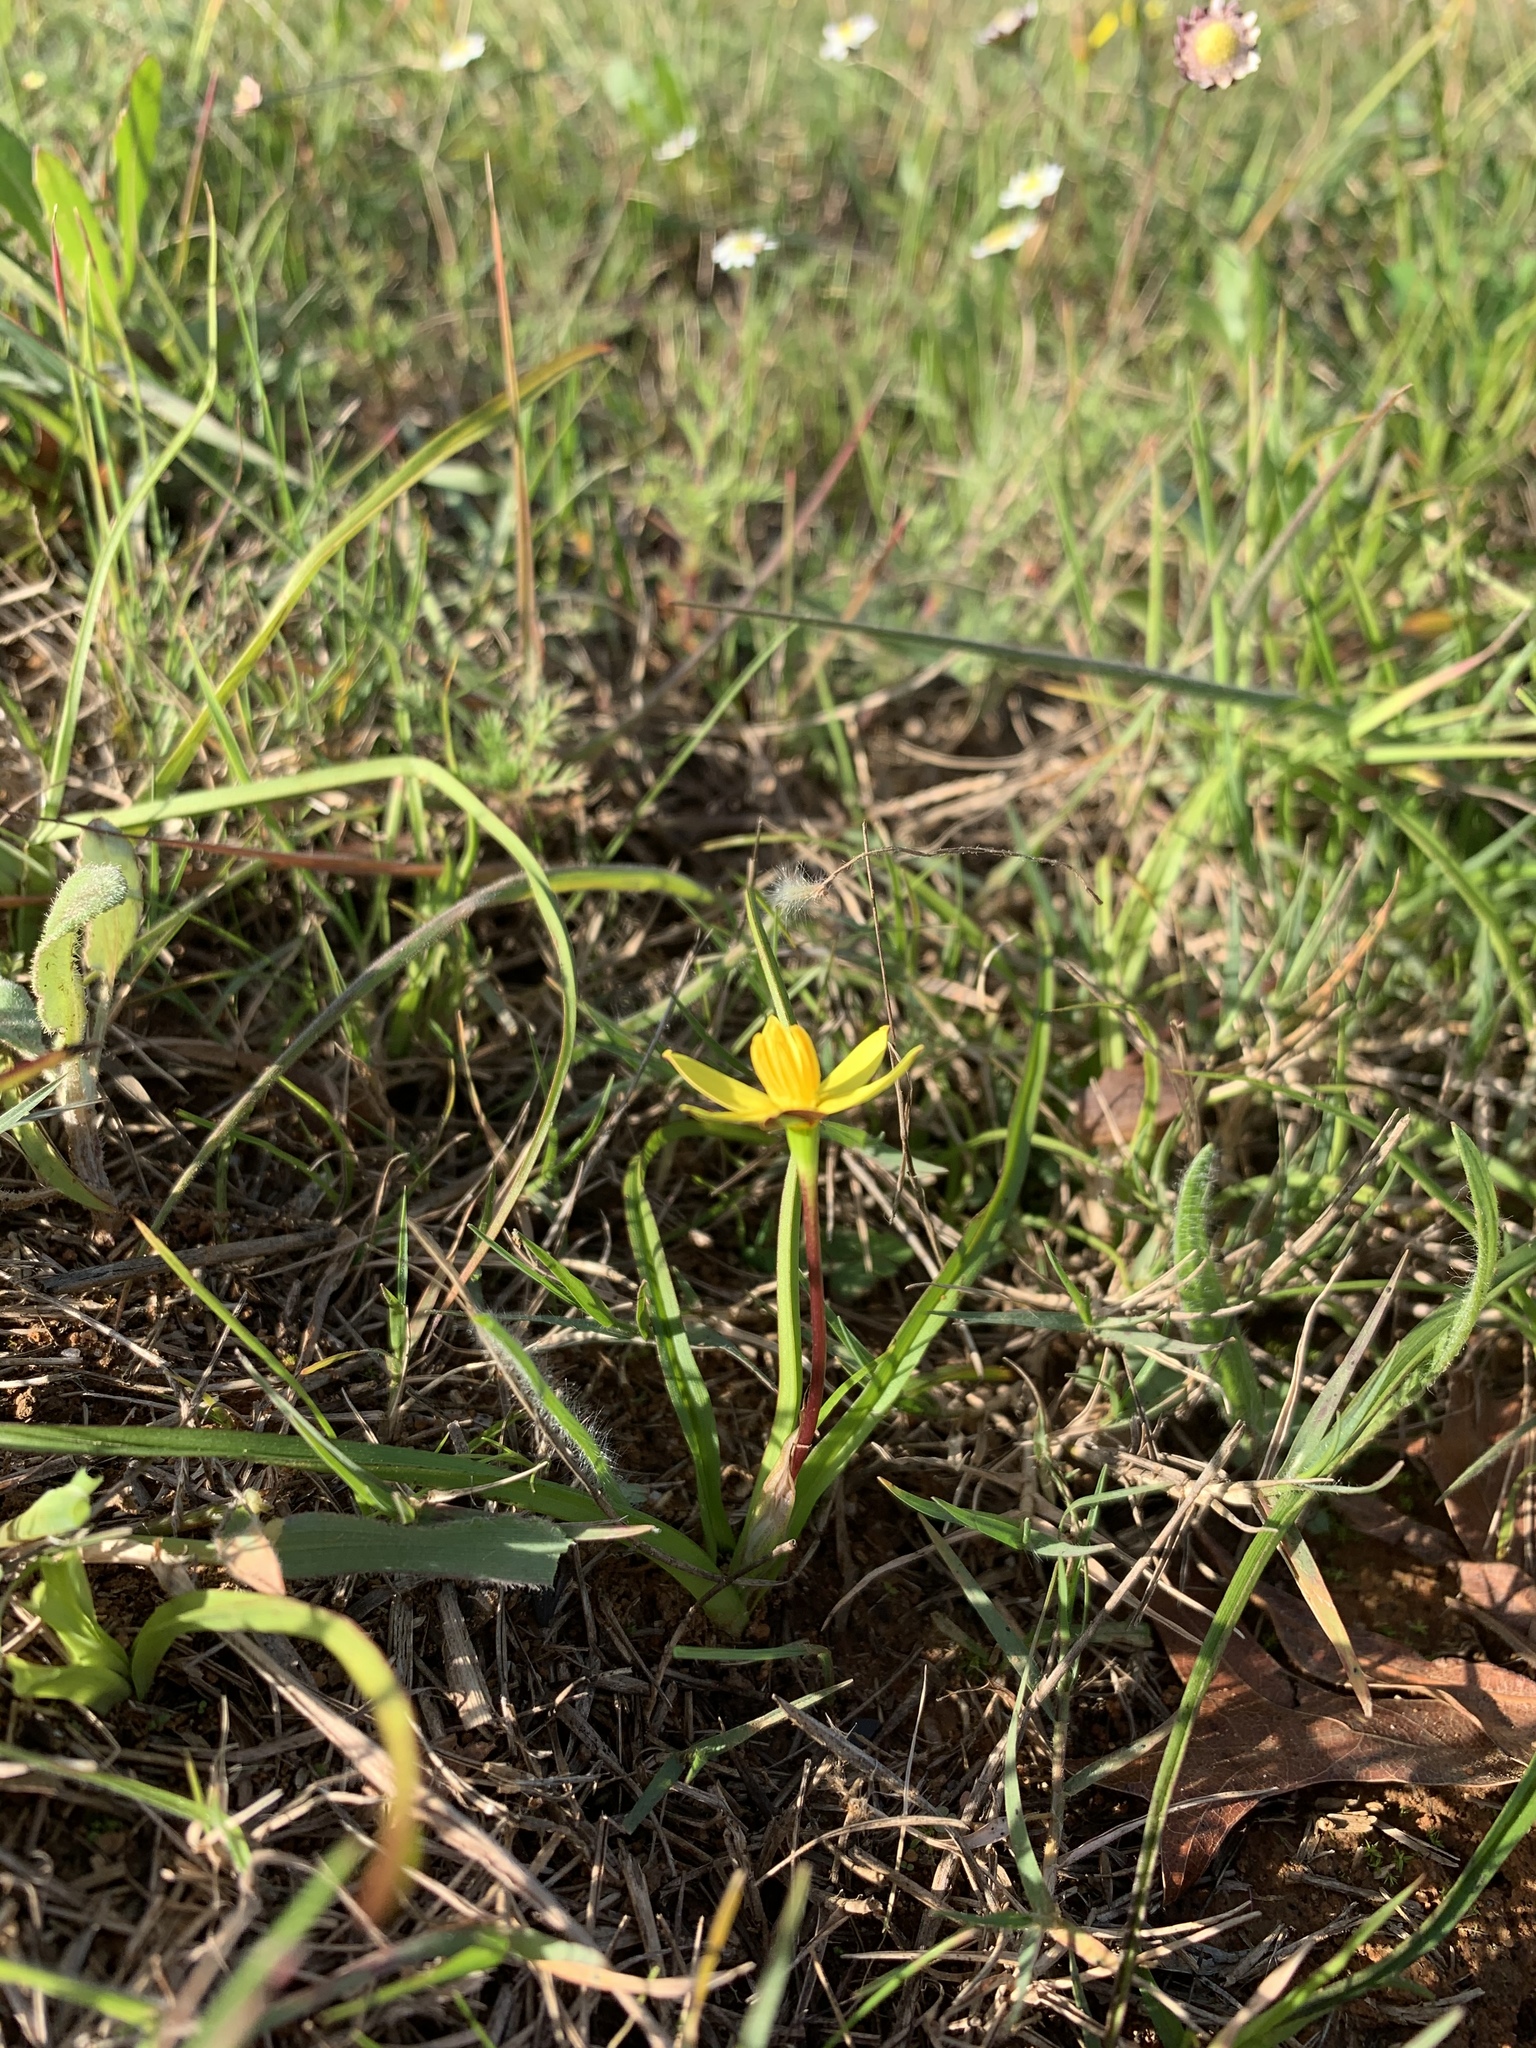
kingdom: Plantae
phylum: Tracheophyta
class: Liliopsida
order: Asparagales
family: Hypoxidaceae
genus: Pauridia
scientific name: Pauridia flaccida
